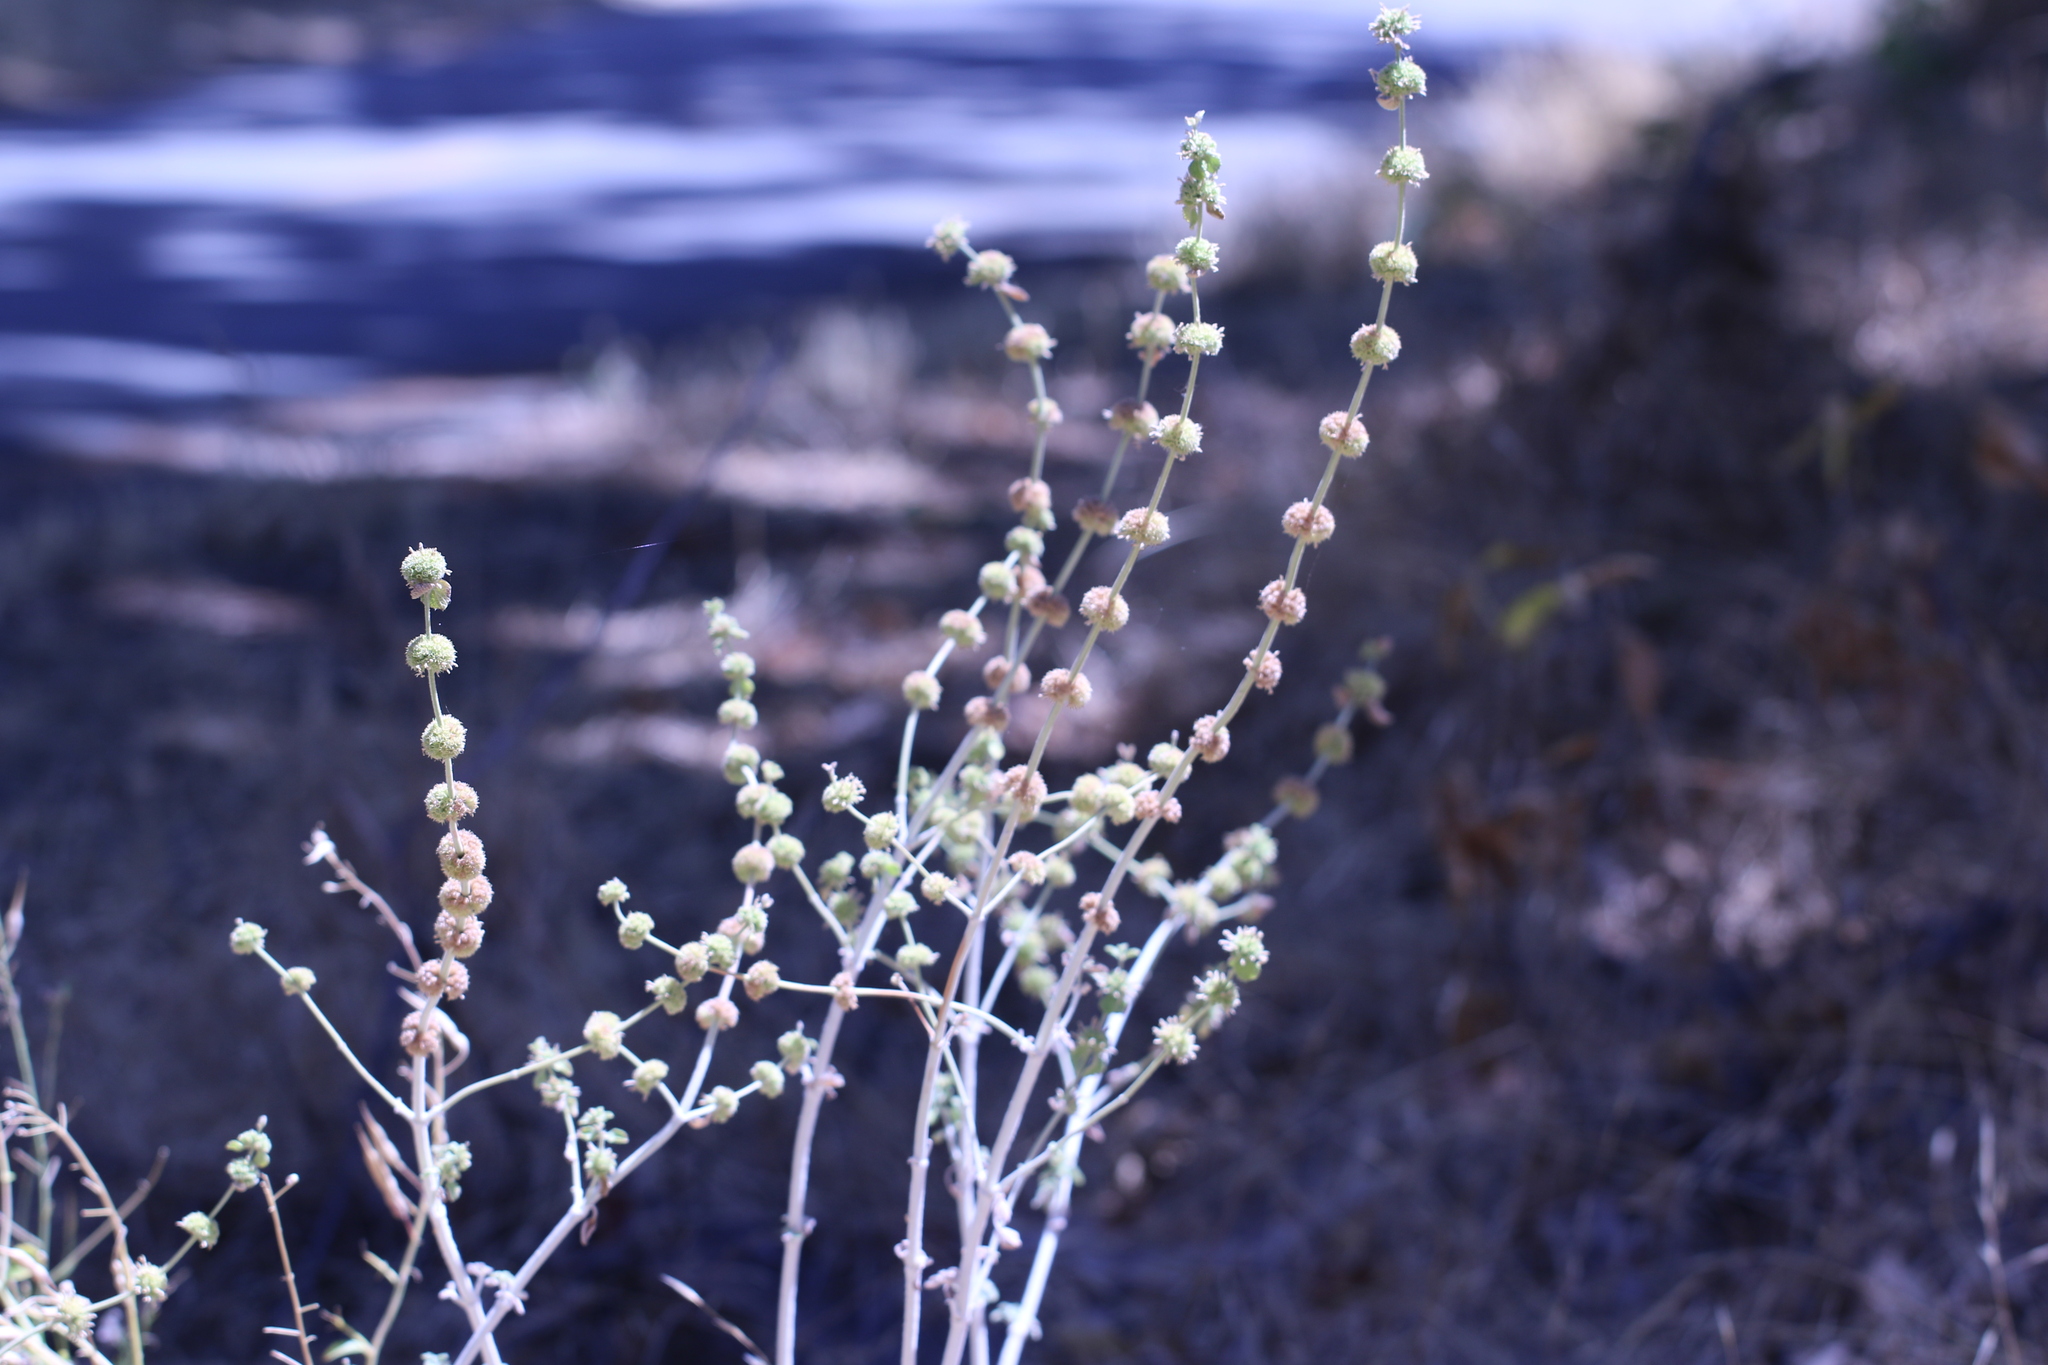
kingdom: Plantae
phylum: Tracheophyta
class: Magnoliopsida
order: Lamiales
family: Lamiaceae
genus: Marrubium
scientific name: Marrubium vulgare
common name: Horehound
